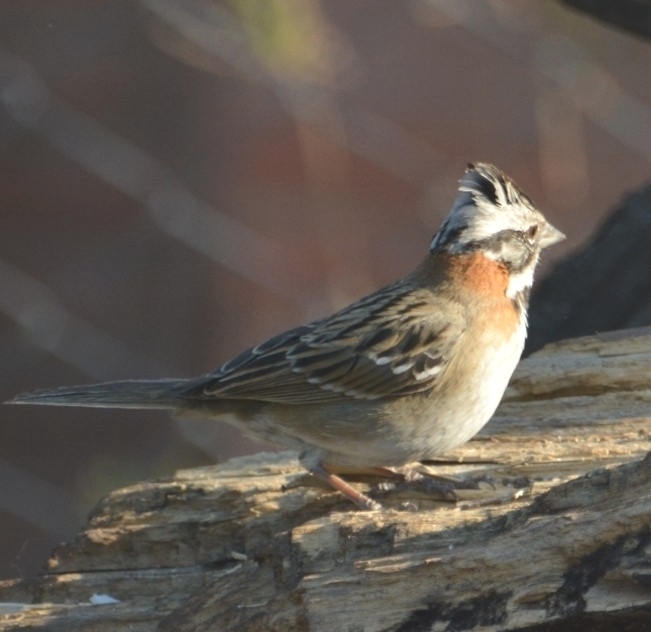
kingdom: Animalia
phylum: Chordata
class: Aves
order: Passeriformes
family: Passerellidae
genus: Zonotrichia
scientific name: Zonotrichia capensis
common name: Rufous-collared sparrow
